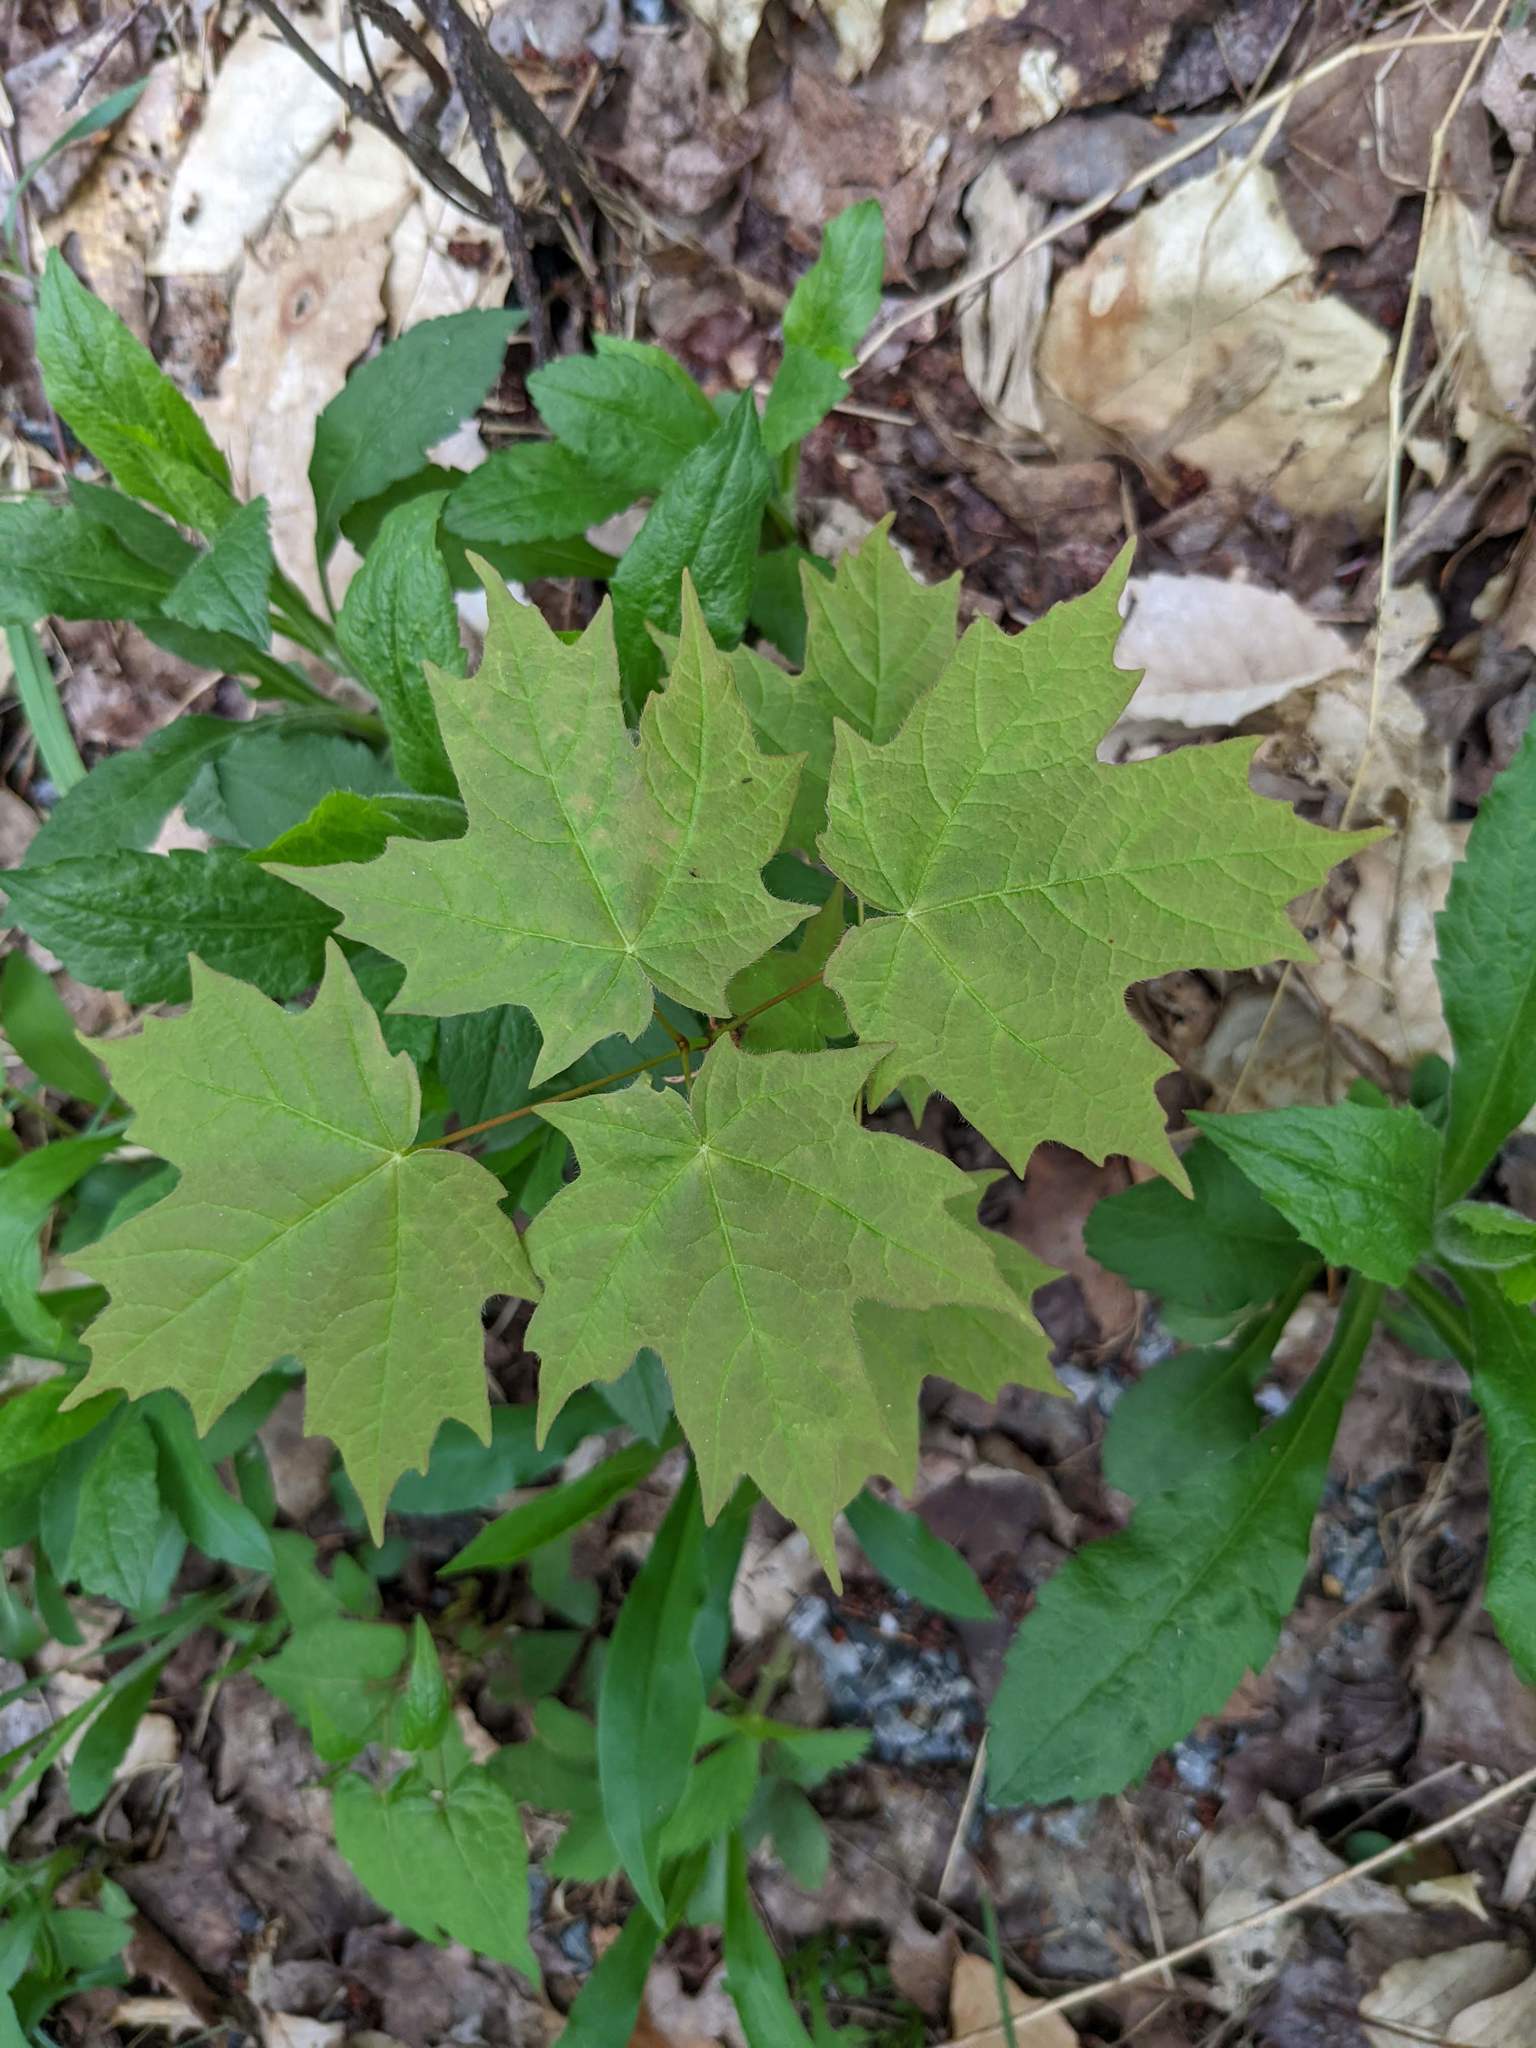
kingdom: Plantae
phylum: Tracheophyta
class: Magnoliopsida
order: Sapindales
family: Sapindaceae
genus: Acer
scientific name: Acer saccharum
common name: Sugar maple
